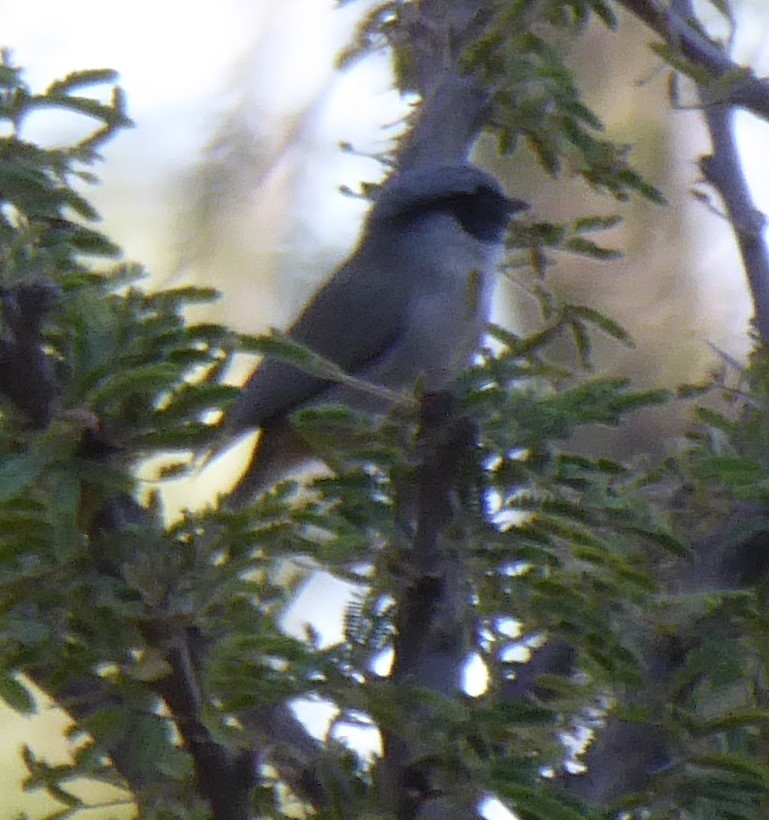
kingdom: Animalia
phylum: Chordata
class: Aves
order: Passeriformes
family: Aegithalidae
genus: Psaltriparus
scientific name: Psaltriparus minimus
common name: American bushtit
